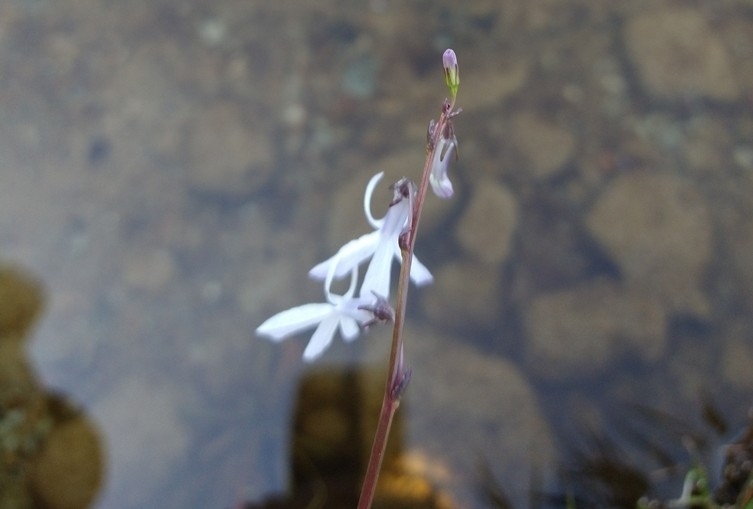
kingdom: Plantae
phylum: Tracheophyta
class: Magnoliopsida
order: Asterales
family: Campanulaceae
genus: Lobelia
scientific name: Lobelia dortmanna
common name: Water lobelia
